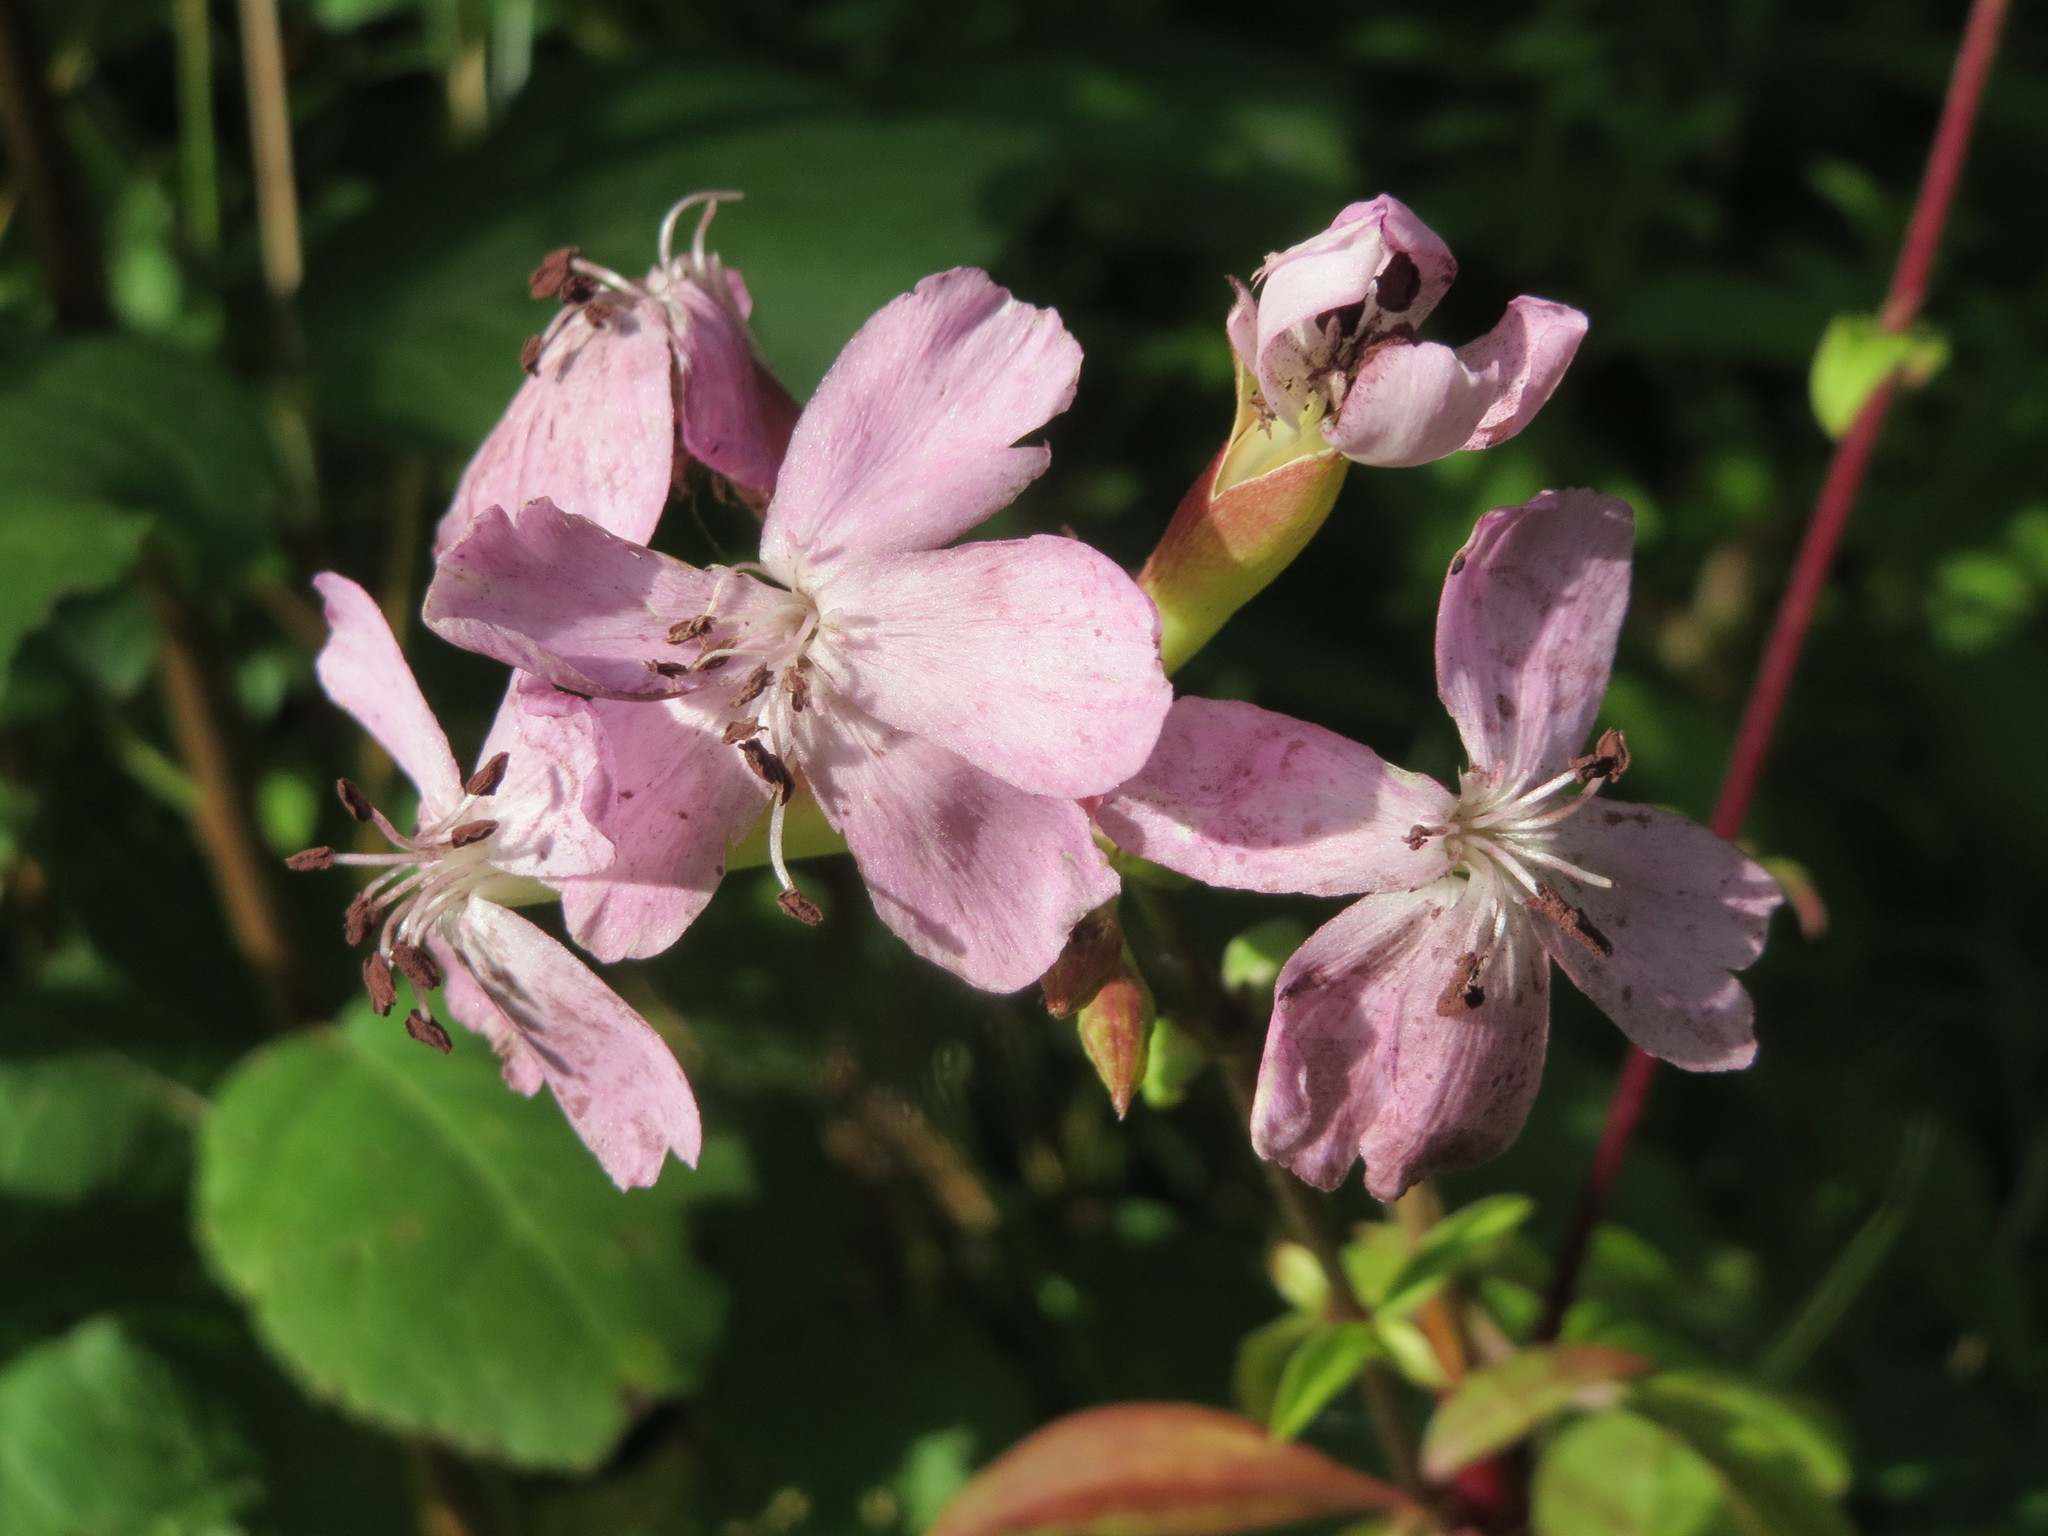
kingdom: Plantae
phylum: Tracheophyta
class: Magnoliopsida
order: Caryophyllales
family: Caryophyllaceae
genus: Saponaria
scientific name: Saponaria officinalis
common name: Soapwort
